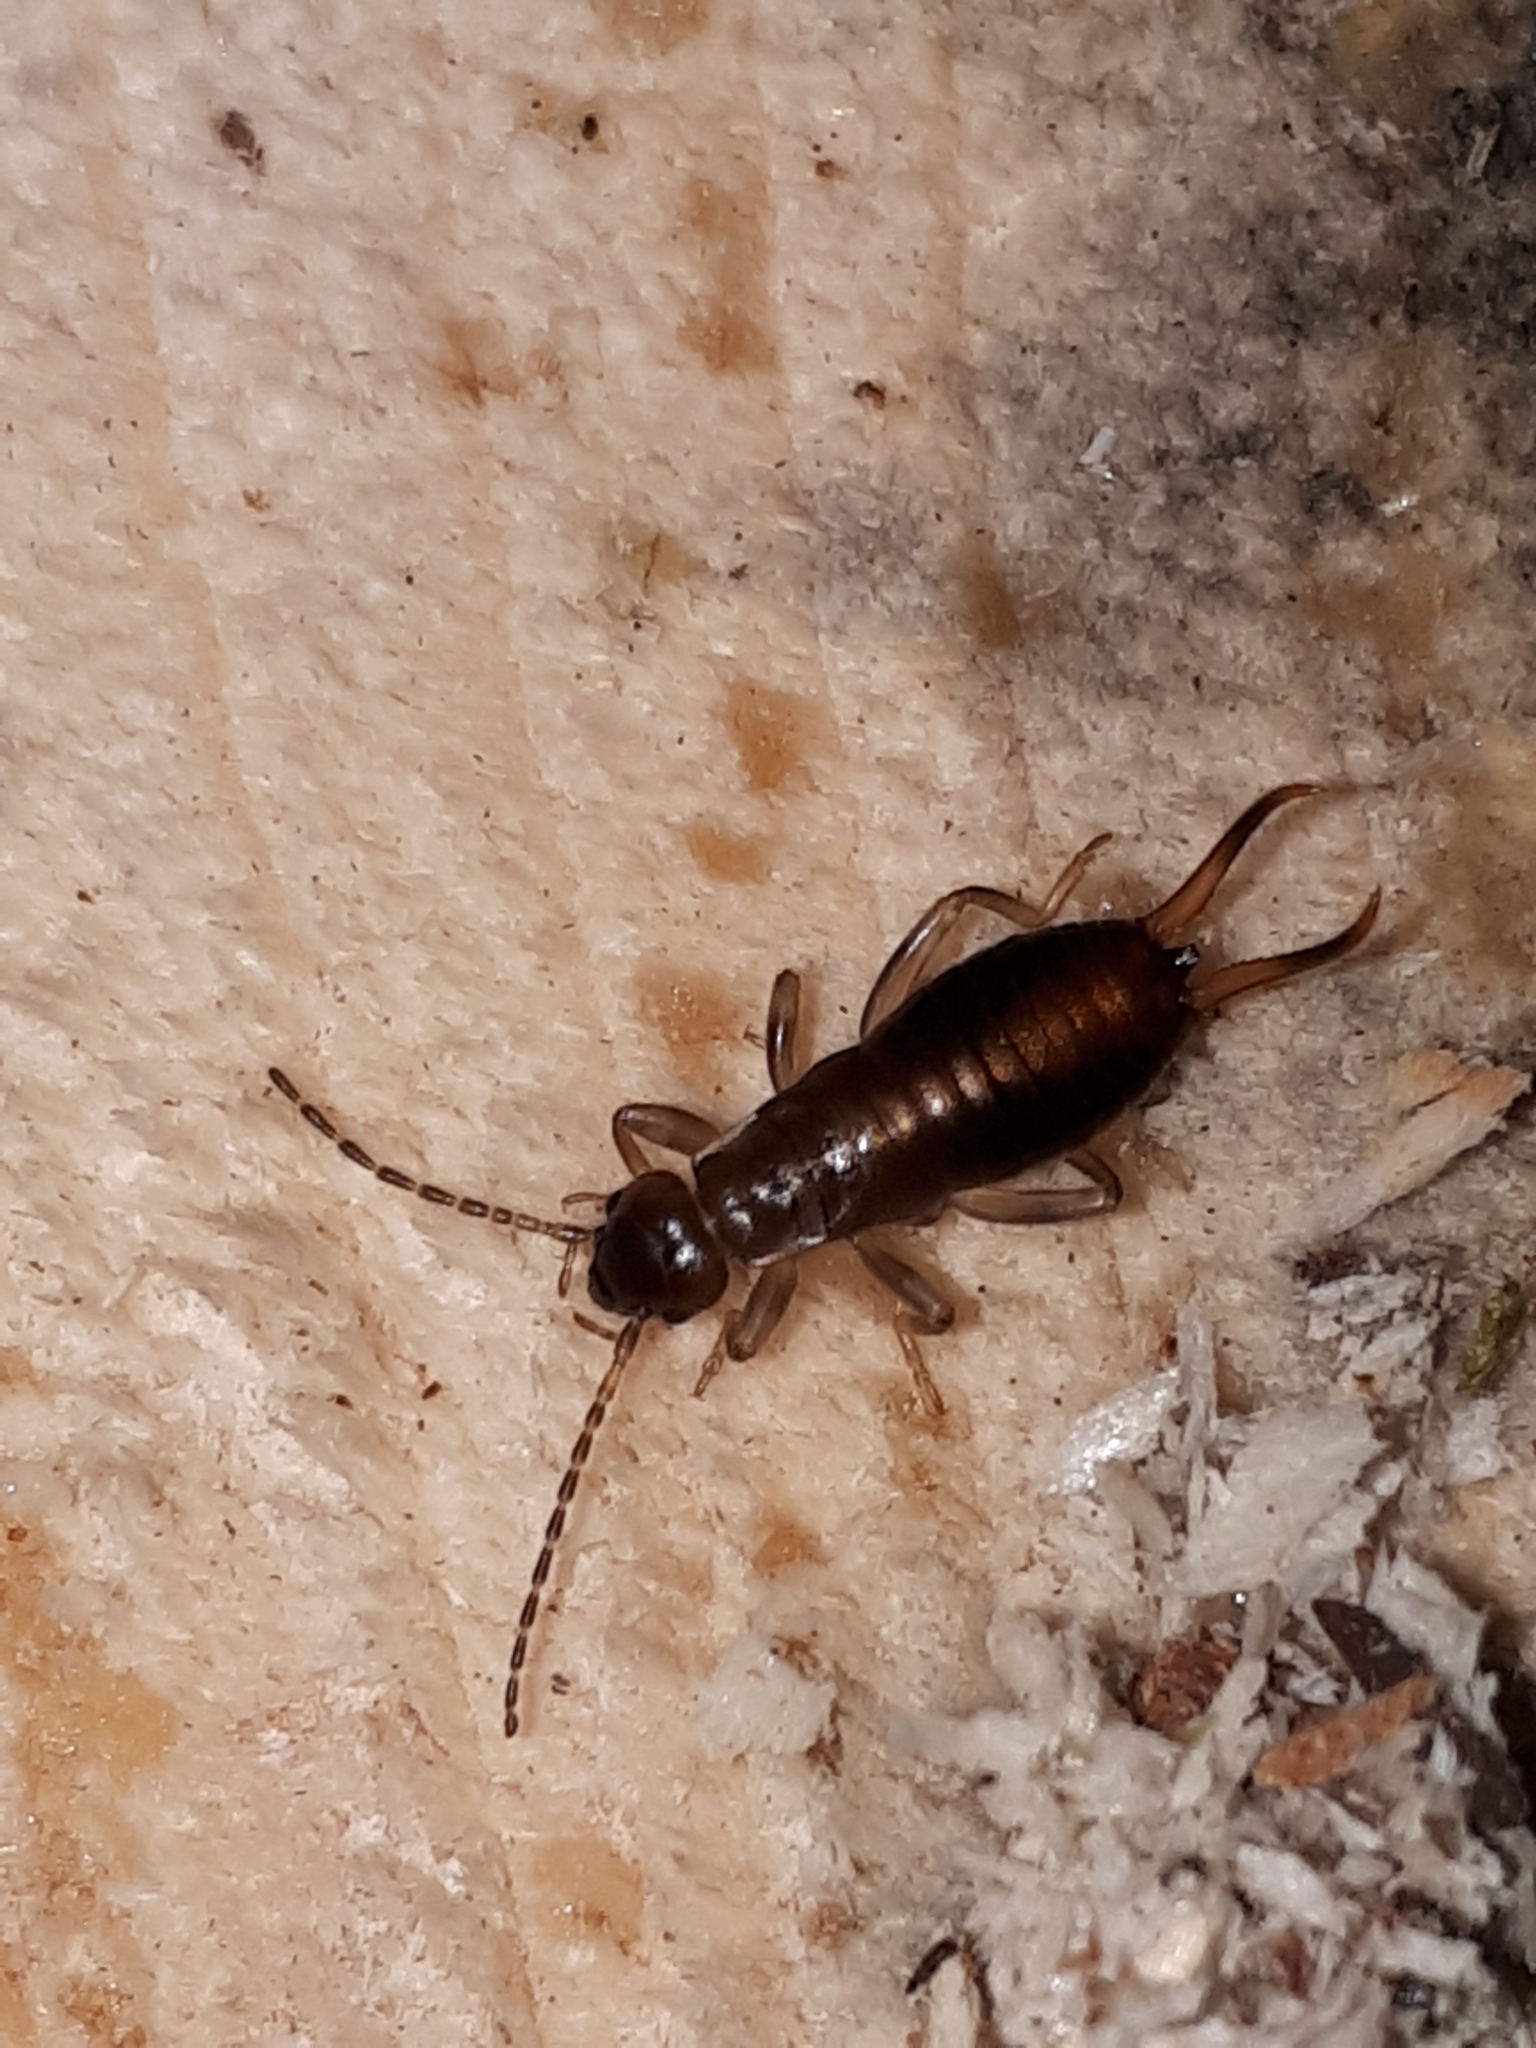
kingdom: Animalia
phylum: Arthropoda
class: Insecta
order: Dermaptera
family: Forficulidae
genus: Chelidurella
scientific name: Chelidurella acanthopygia
